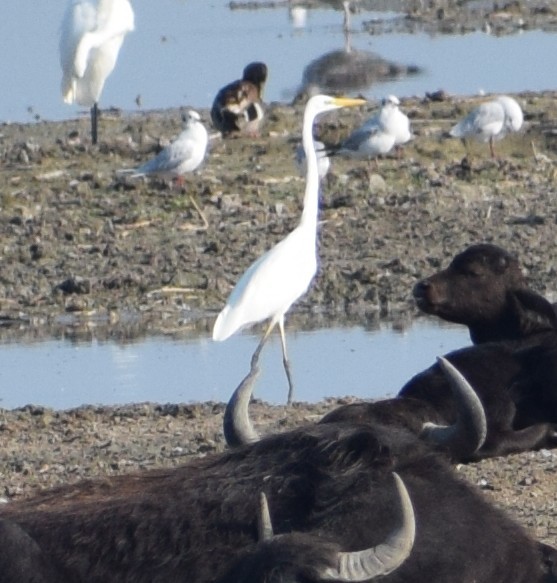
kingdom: Animalia
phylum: Chordata
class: Aves
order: Pelecaniformes
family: Ardeidae
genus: Ardea
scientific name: Ardea alba
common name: Great egret
